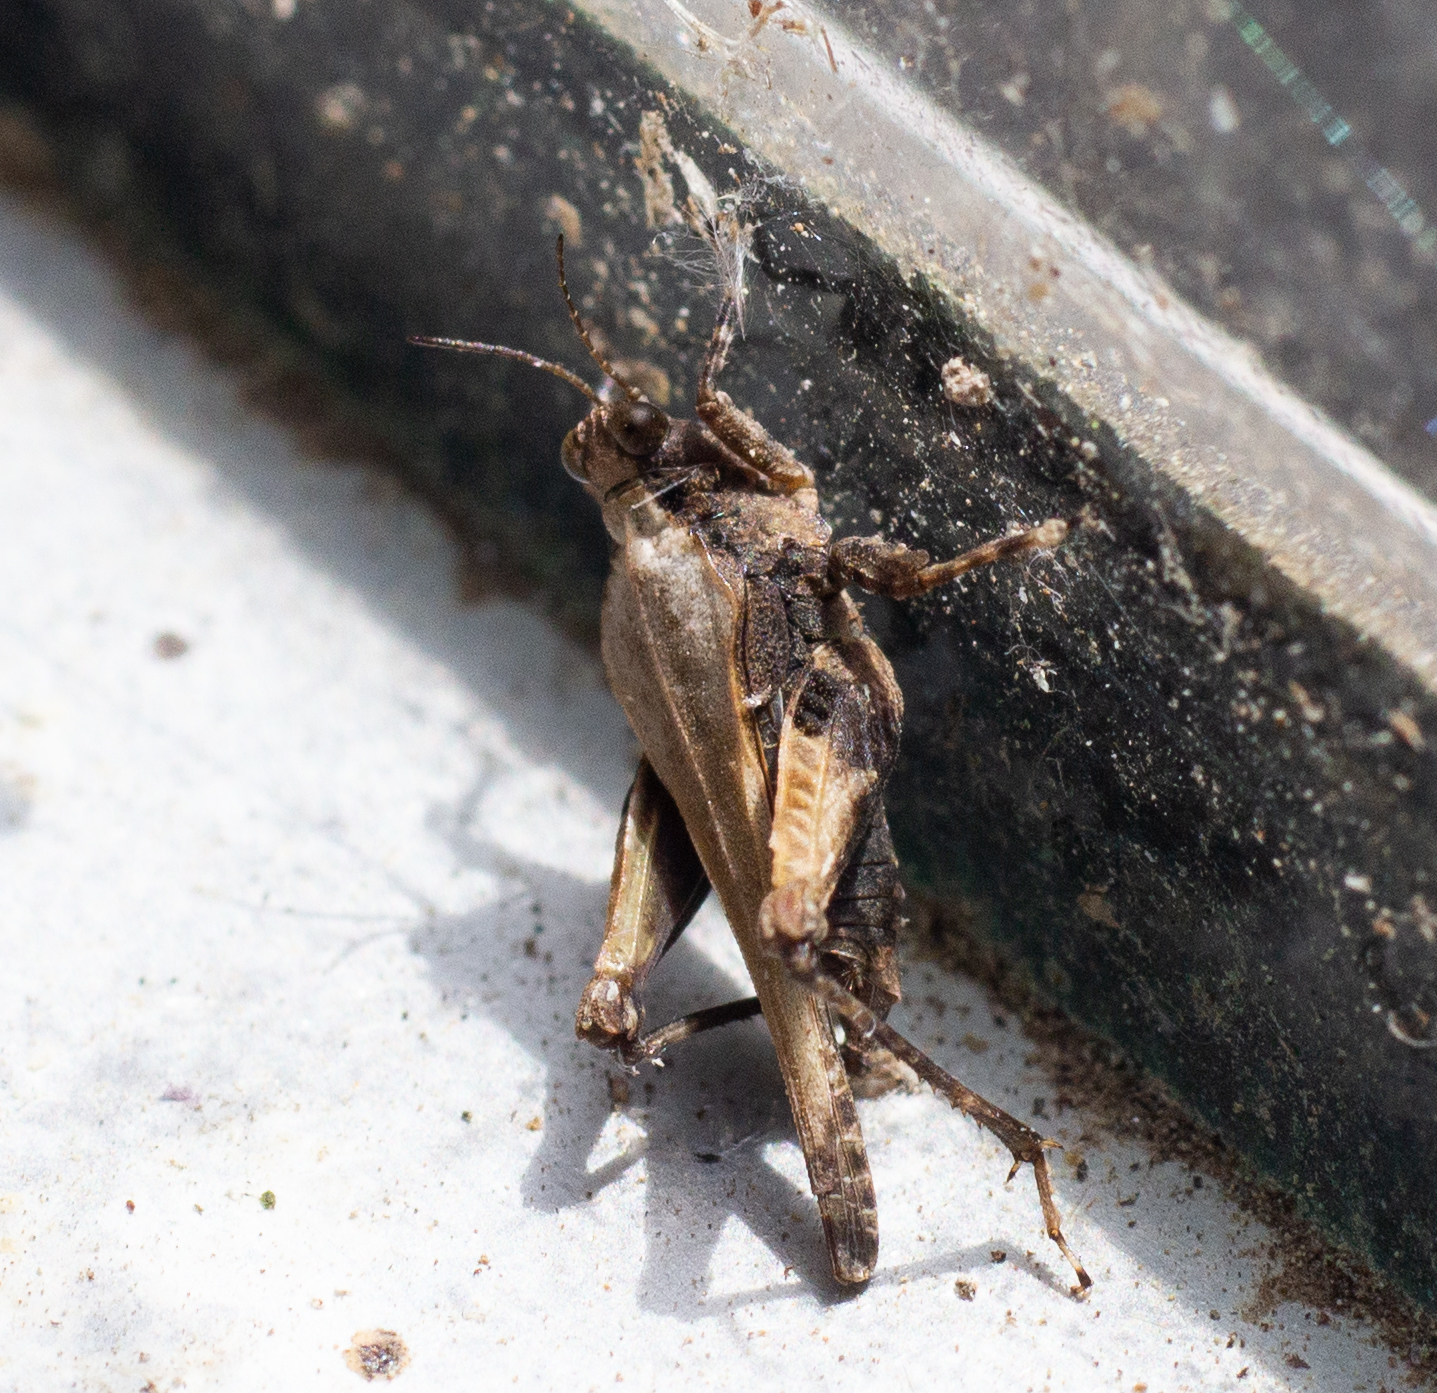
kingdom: Animalia
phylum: Arthropoda
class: Insecta
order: Orthoptera
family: Tetrigidae
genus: Paratettix
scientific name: Paratettix meridionalis
